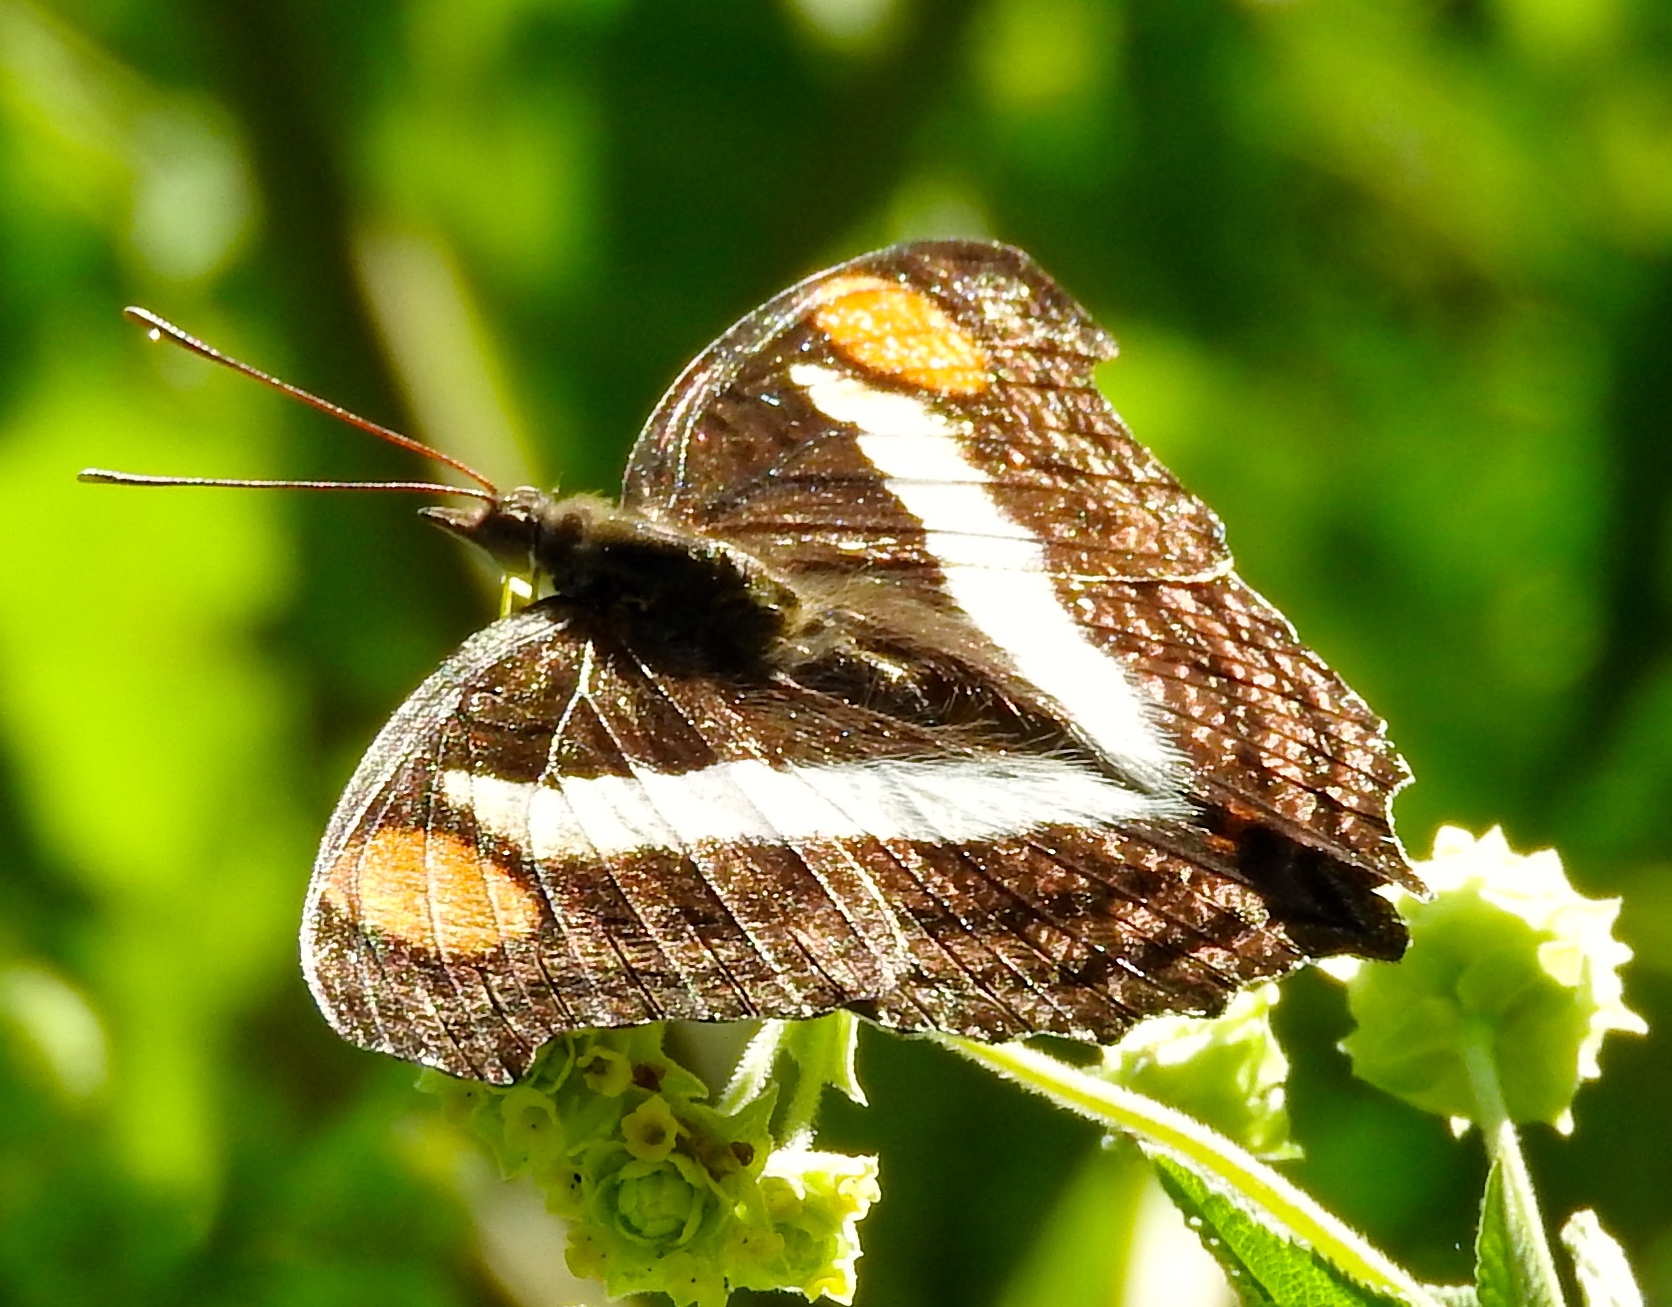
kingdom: Animalia
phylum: Arthropoda
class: Insecta
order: Lepidoptera
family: Nymphalidae
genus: Doxocopa
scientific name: Doxocopa laure
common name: Silver emperor
